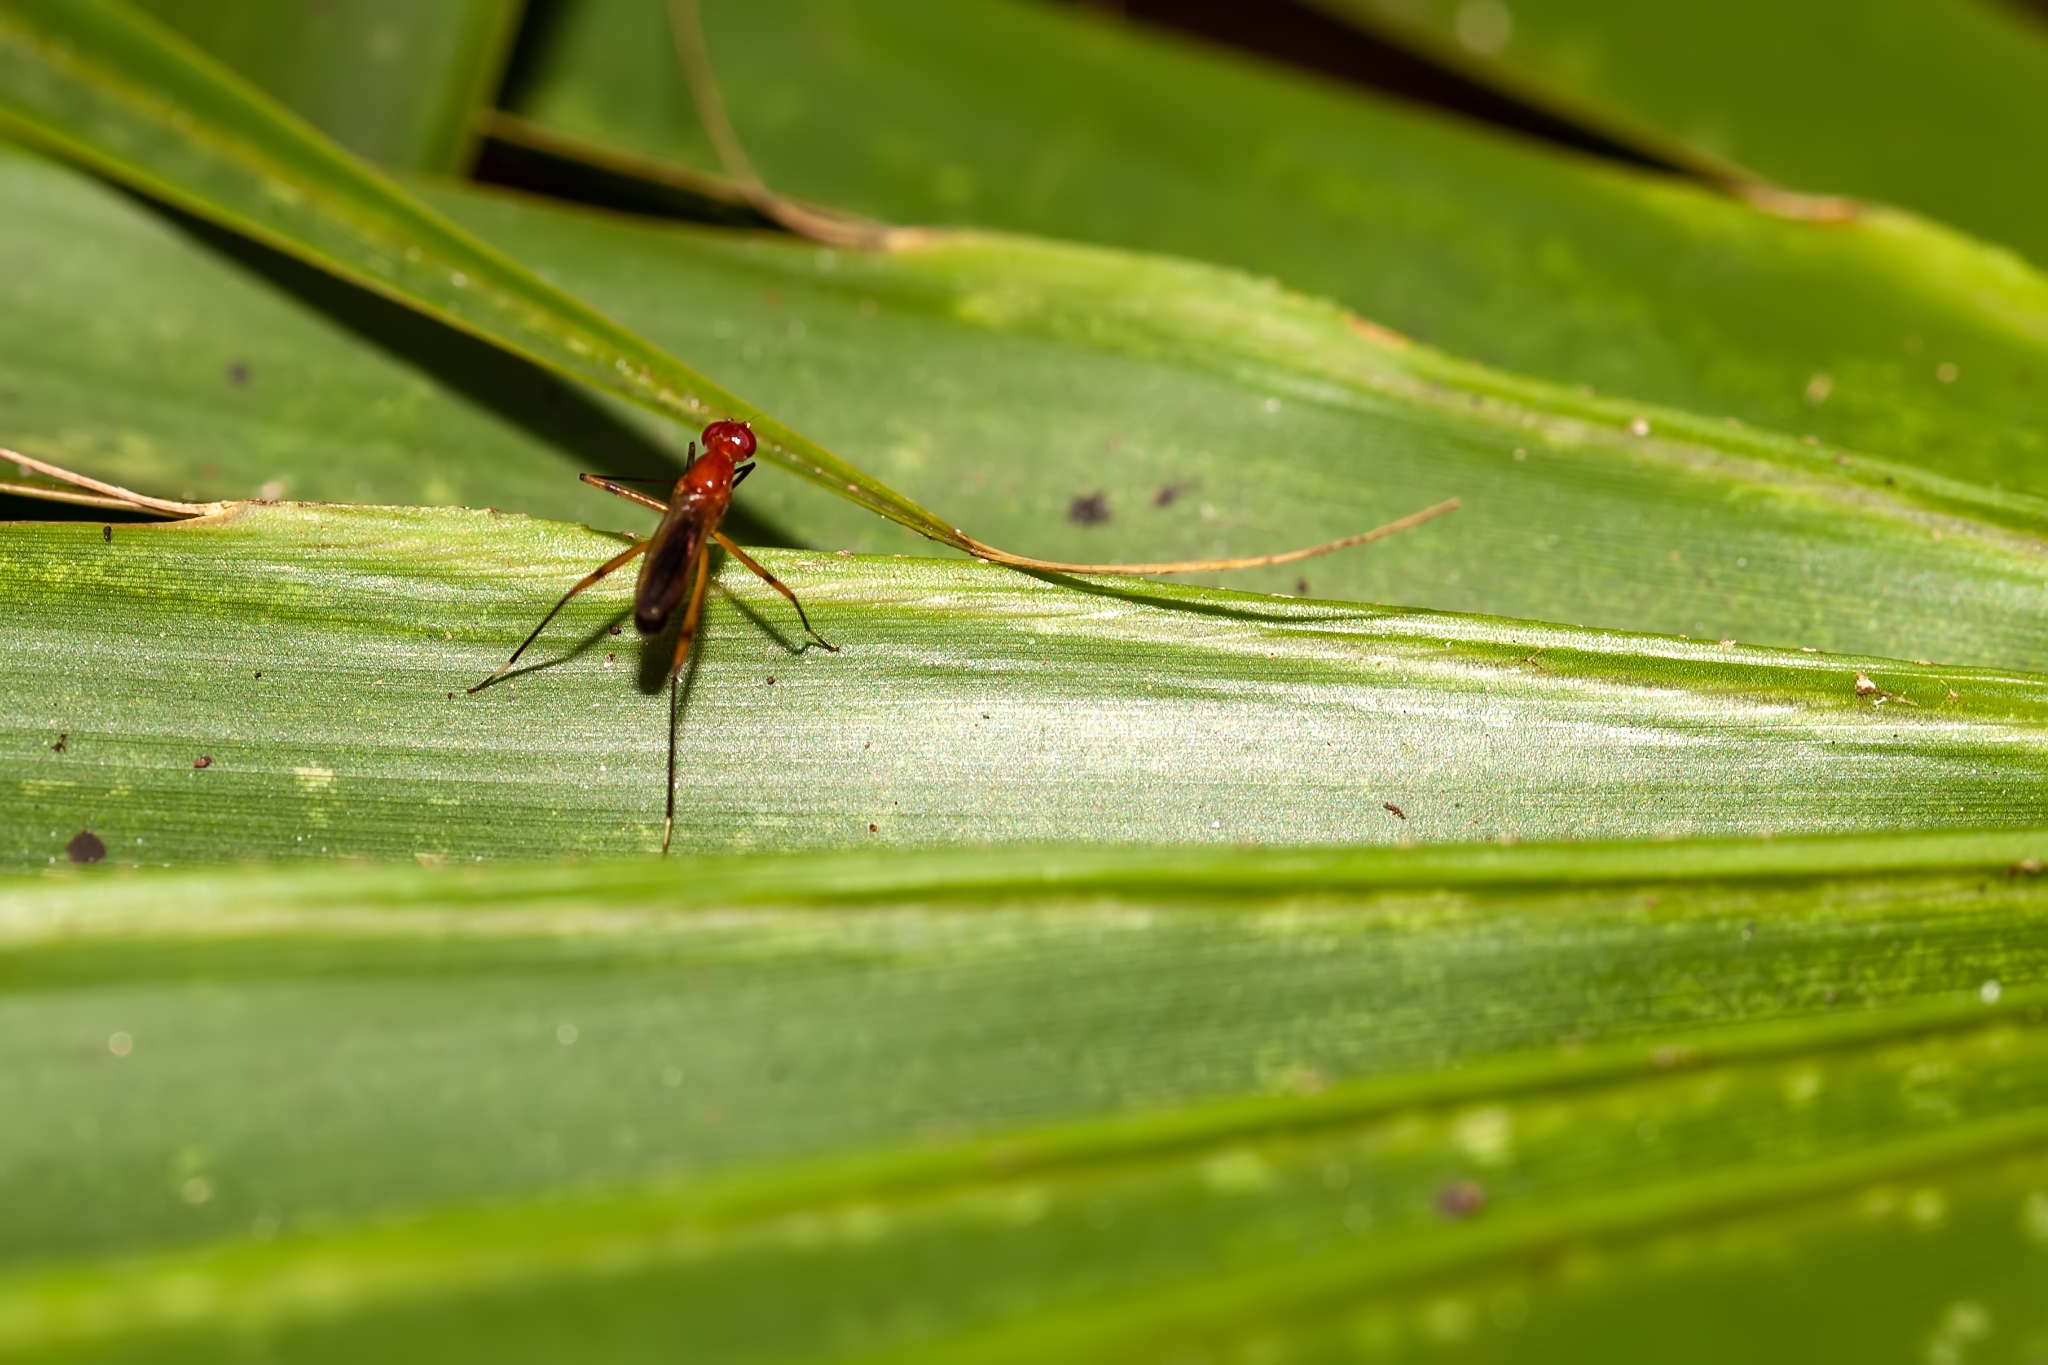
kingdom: Animalia
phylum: Arthropoda
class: Insecta
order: Diptera
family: Micropezidae
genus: Grallipeza
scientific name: Grallipeza nebulosa
